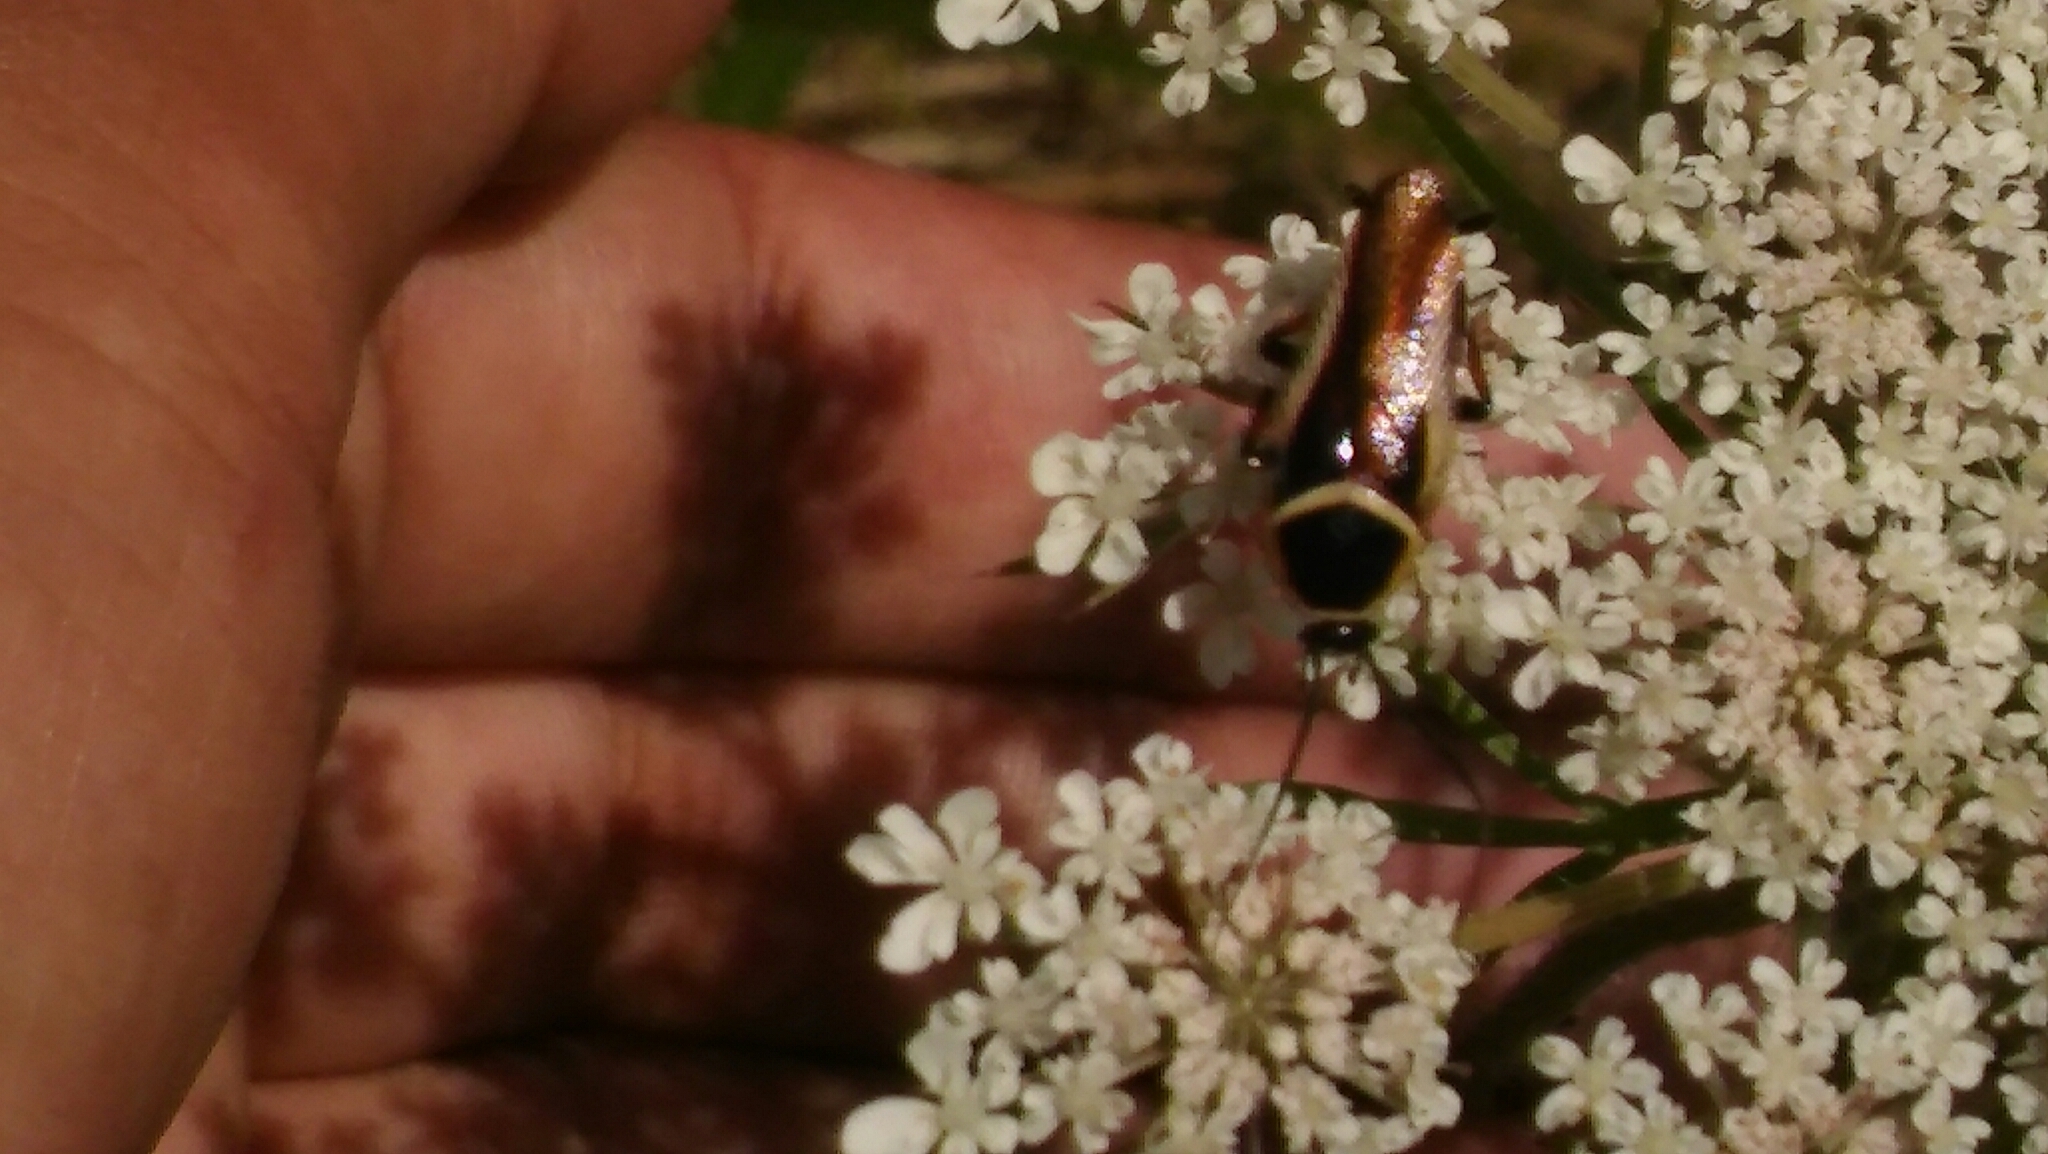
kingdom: Animalia
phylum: Arthropoda
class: Insecta
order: Blattodea
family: Ectobiidae
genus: Pseudomops
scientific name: Pseudomops neglectus
